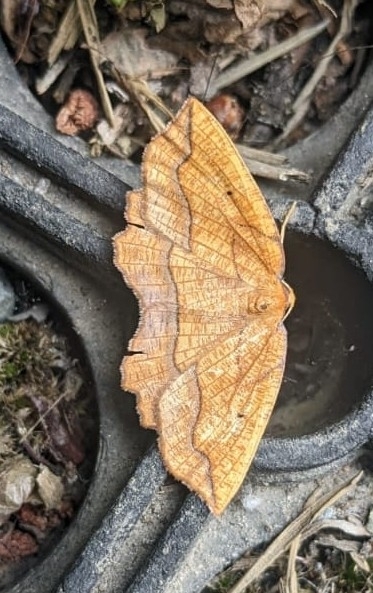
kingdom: Animalia
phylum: Arthropoda
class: Insecta
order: Lepidoptera
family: Geometridae
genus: Epione
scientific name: Epione repandaria
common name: Bordered beauty
